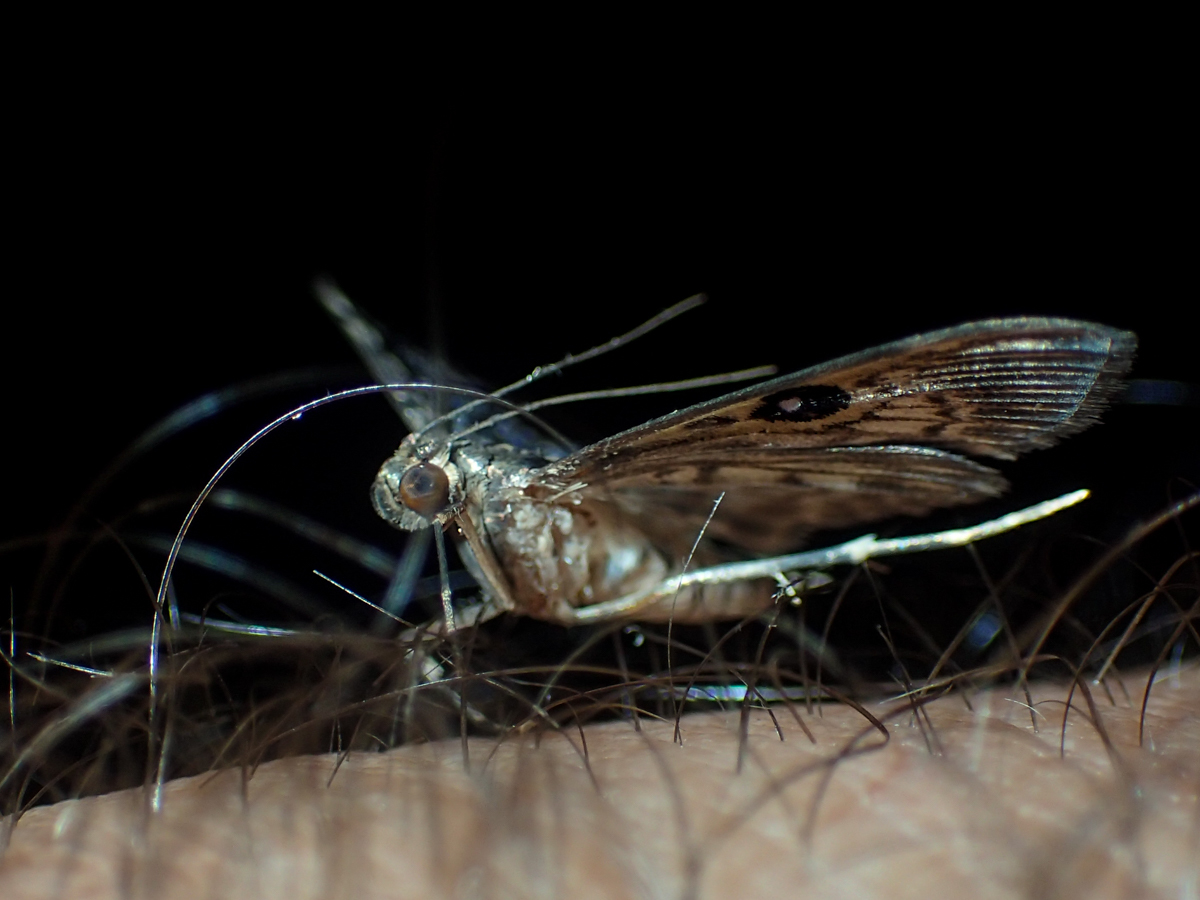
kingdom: Animalia
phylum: Arthropoda
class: Insecta
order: Lepidoptera
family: Crambidae
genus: Rhimphaliodes
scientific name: Rhimphaliodes macrostigma
